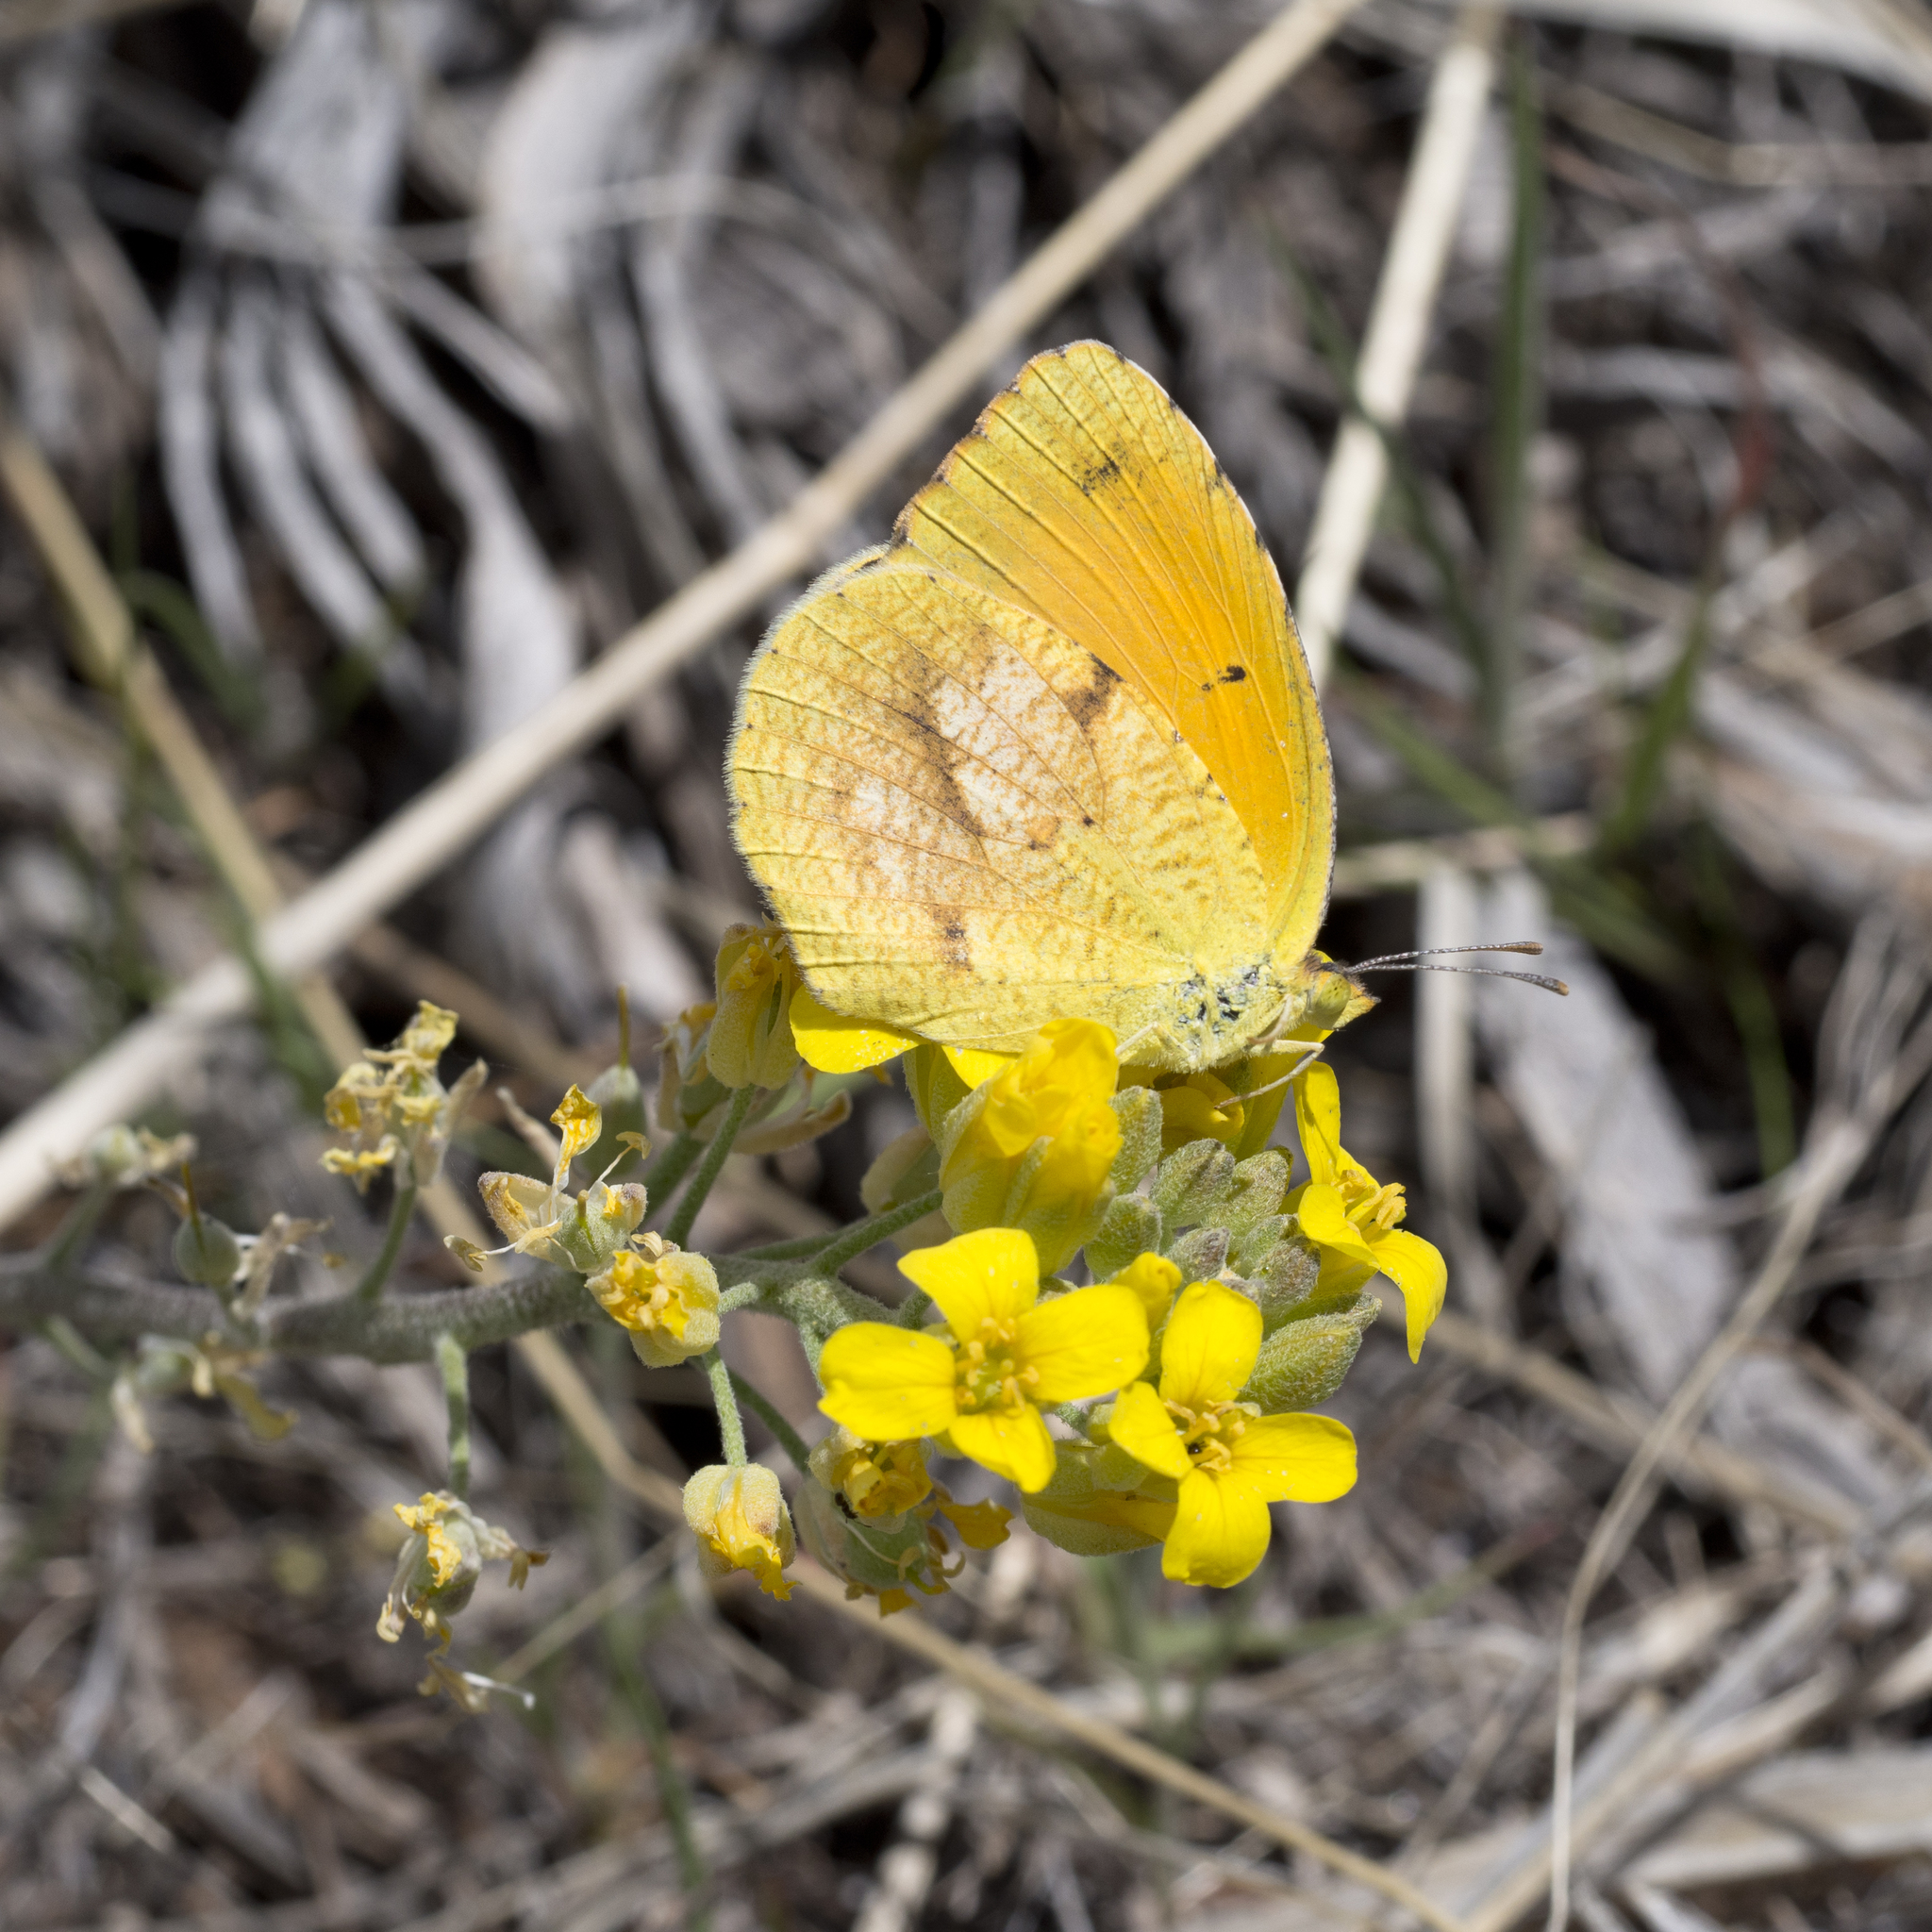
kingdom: Animalia
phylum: Arthropoda
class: Insecta
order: Lepidoptera
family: Pieridae
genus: Abaeis
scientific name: Abaeis nicippe
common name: Sleepy orange
